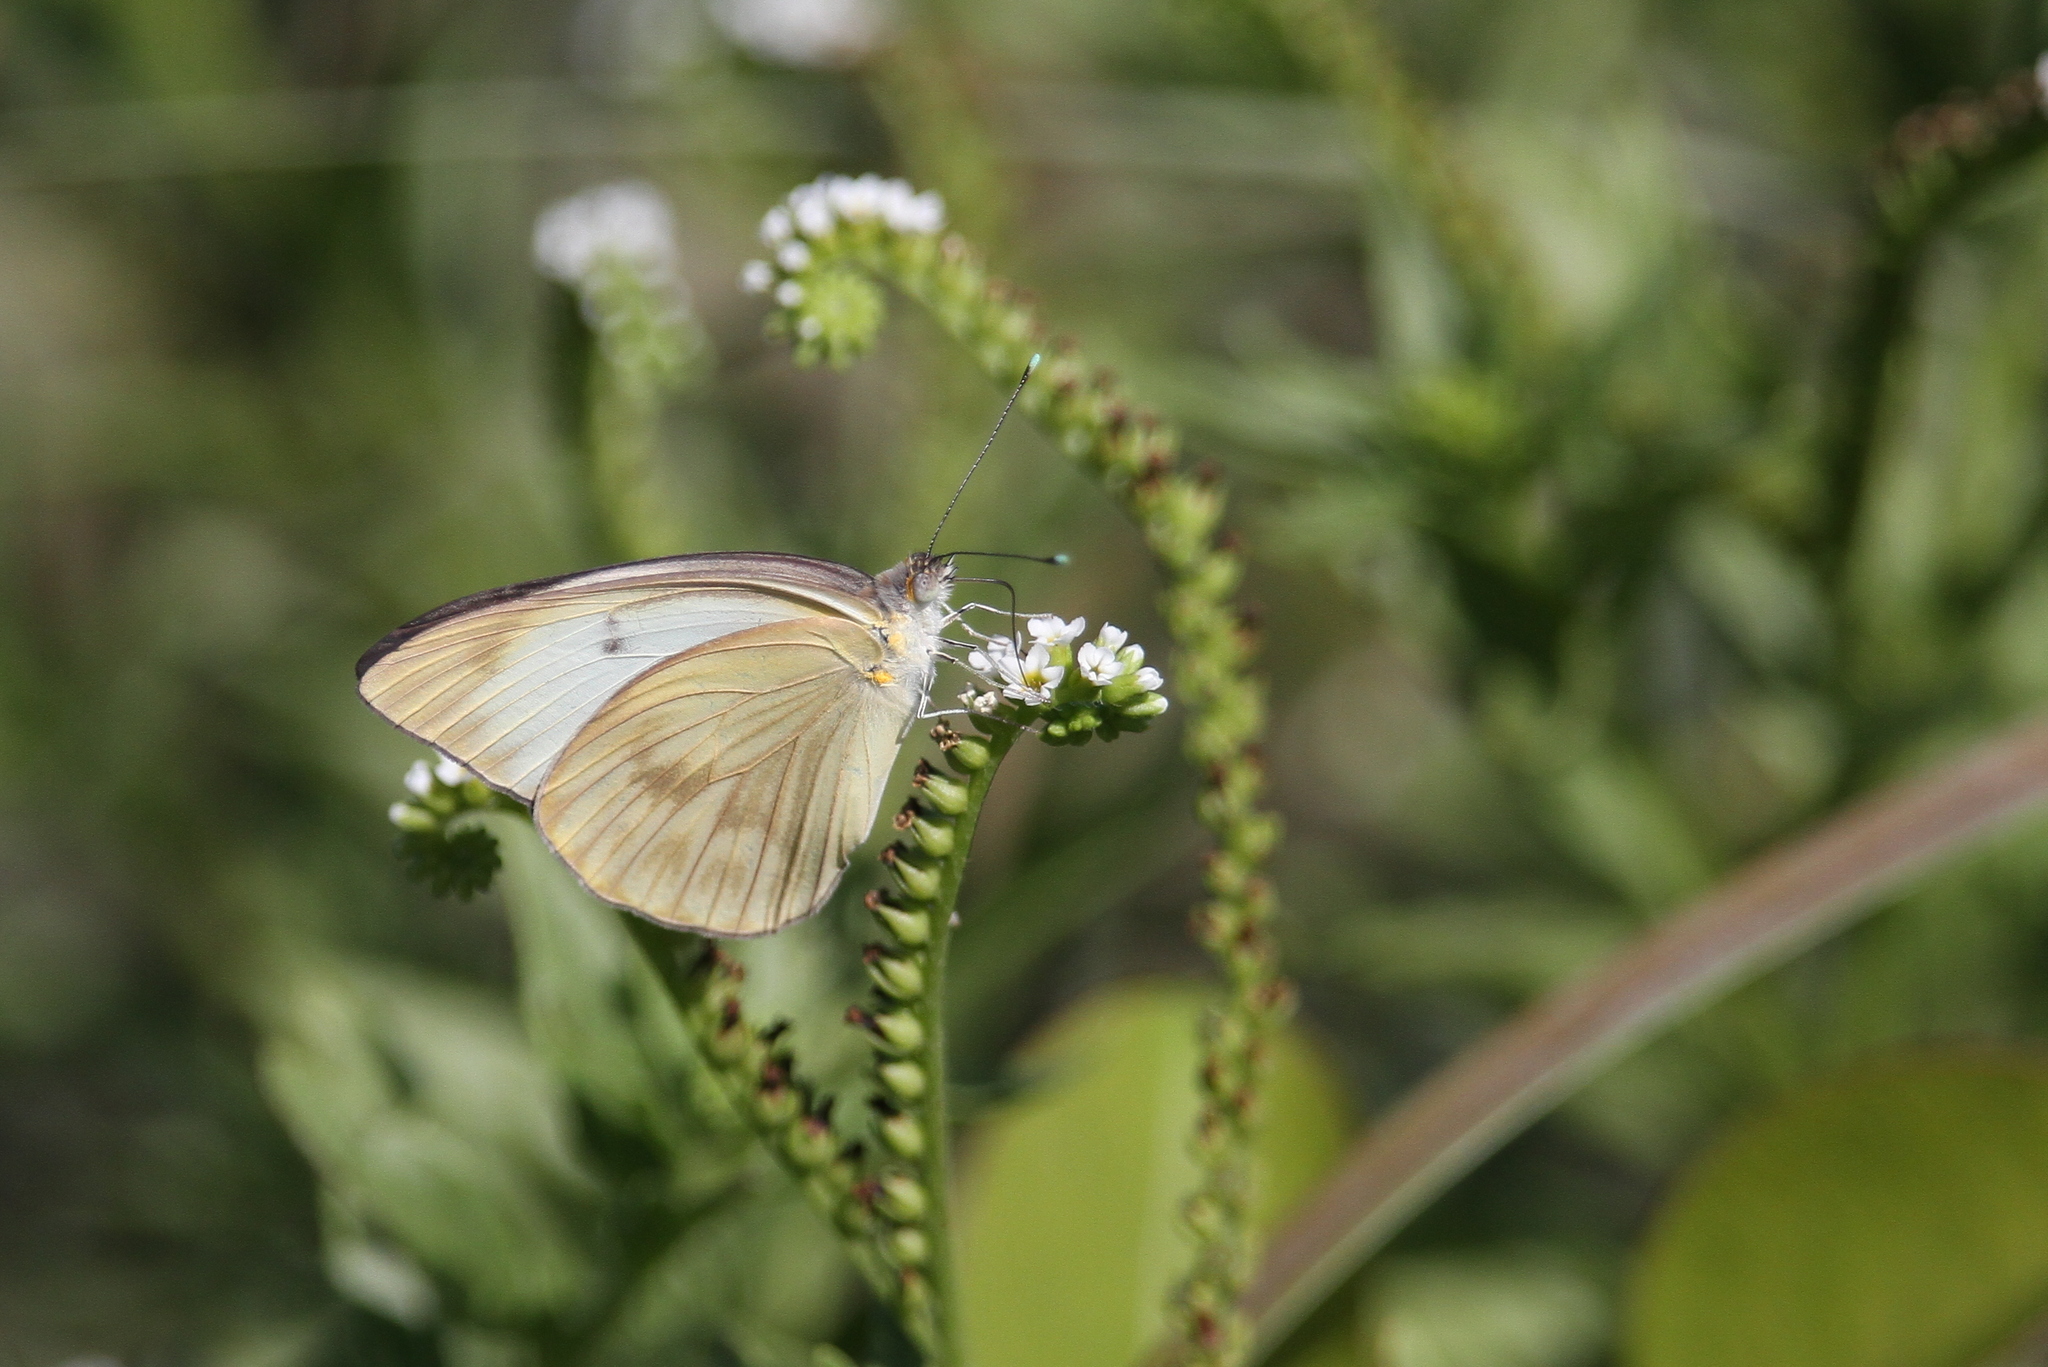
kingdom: Animalia
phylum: Arthropoda
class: Insecta
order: Lepidoptera
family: Pieridae
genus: Ascia
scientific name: Ascia monuste
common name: Great southern white
